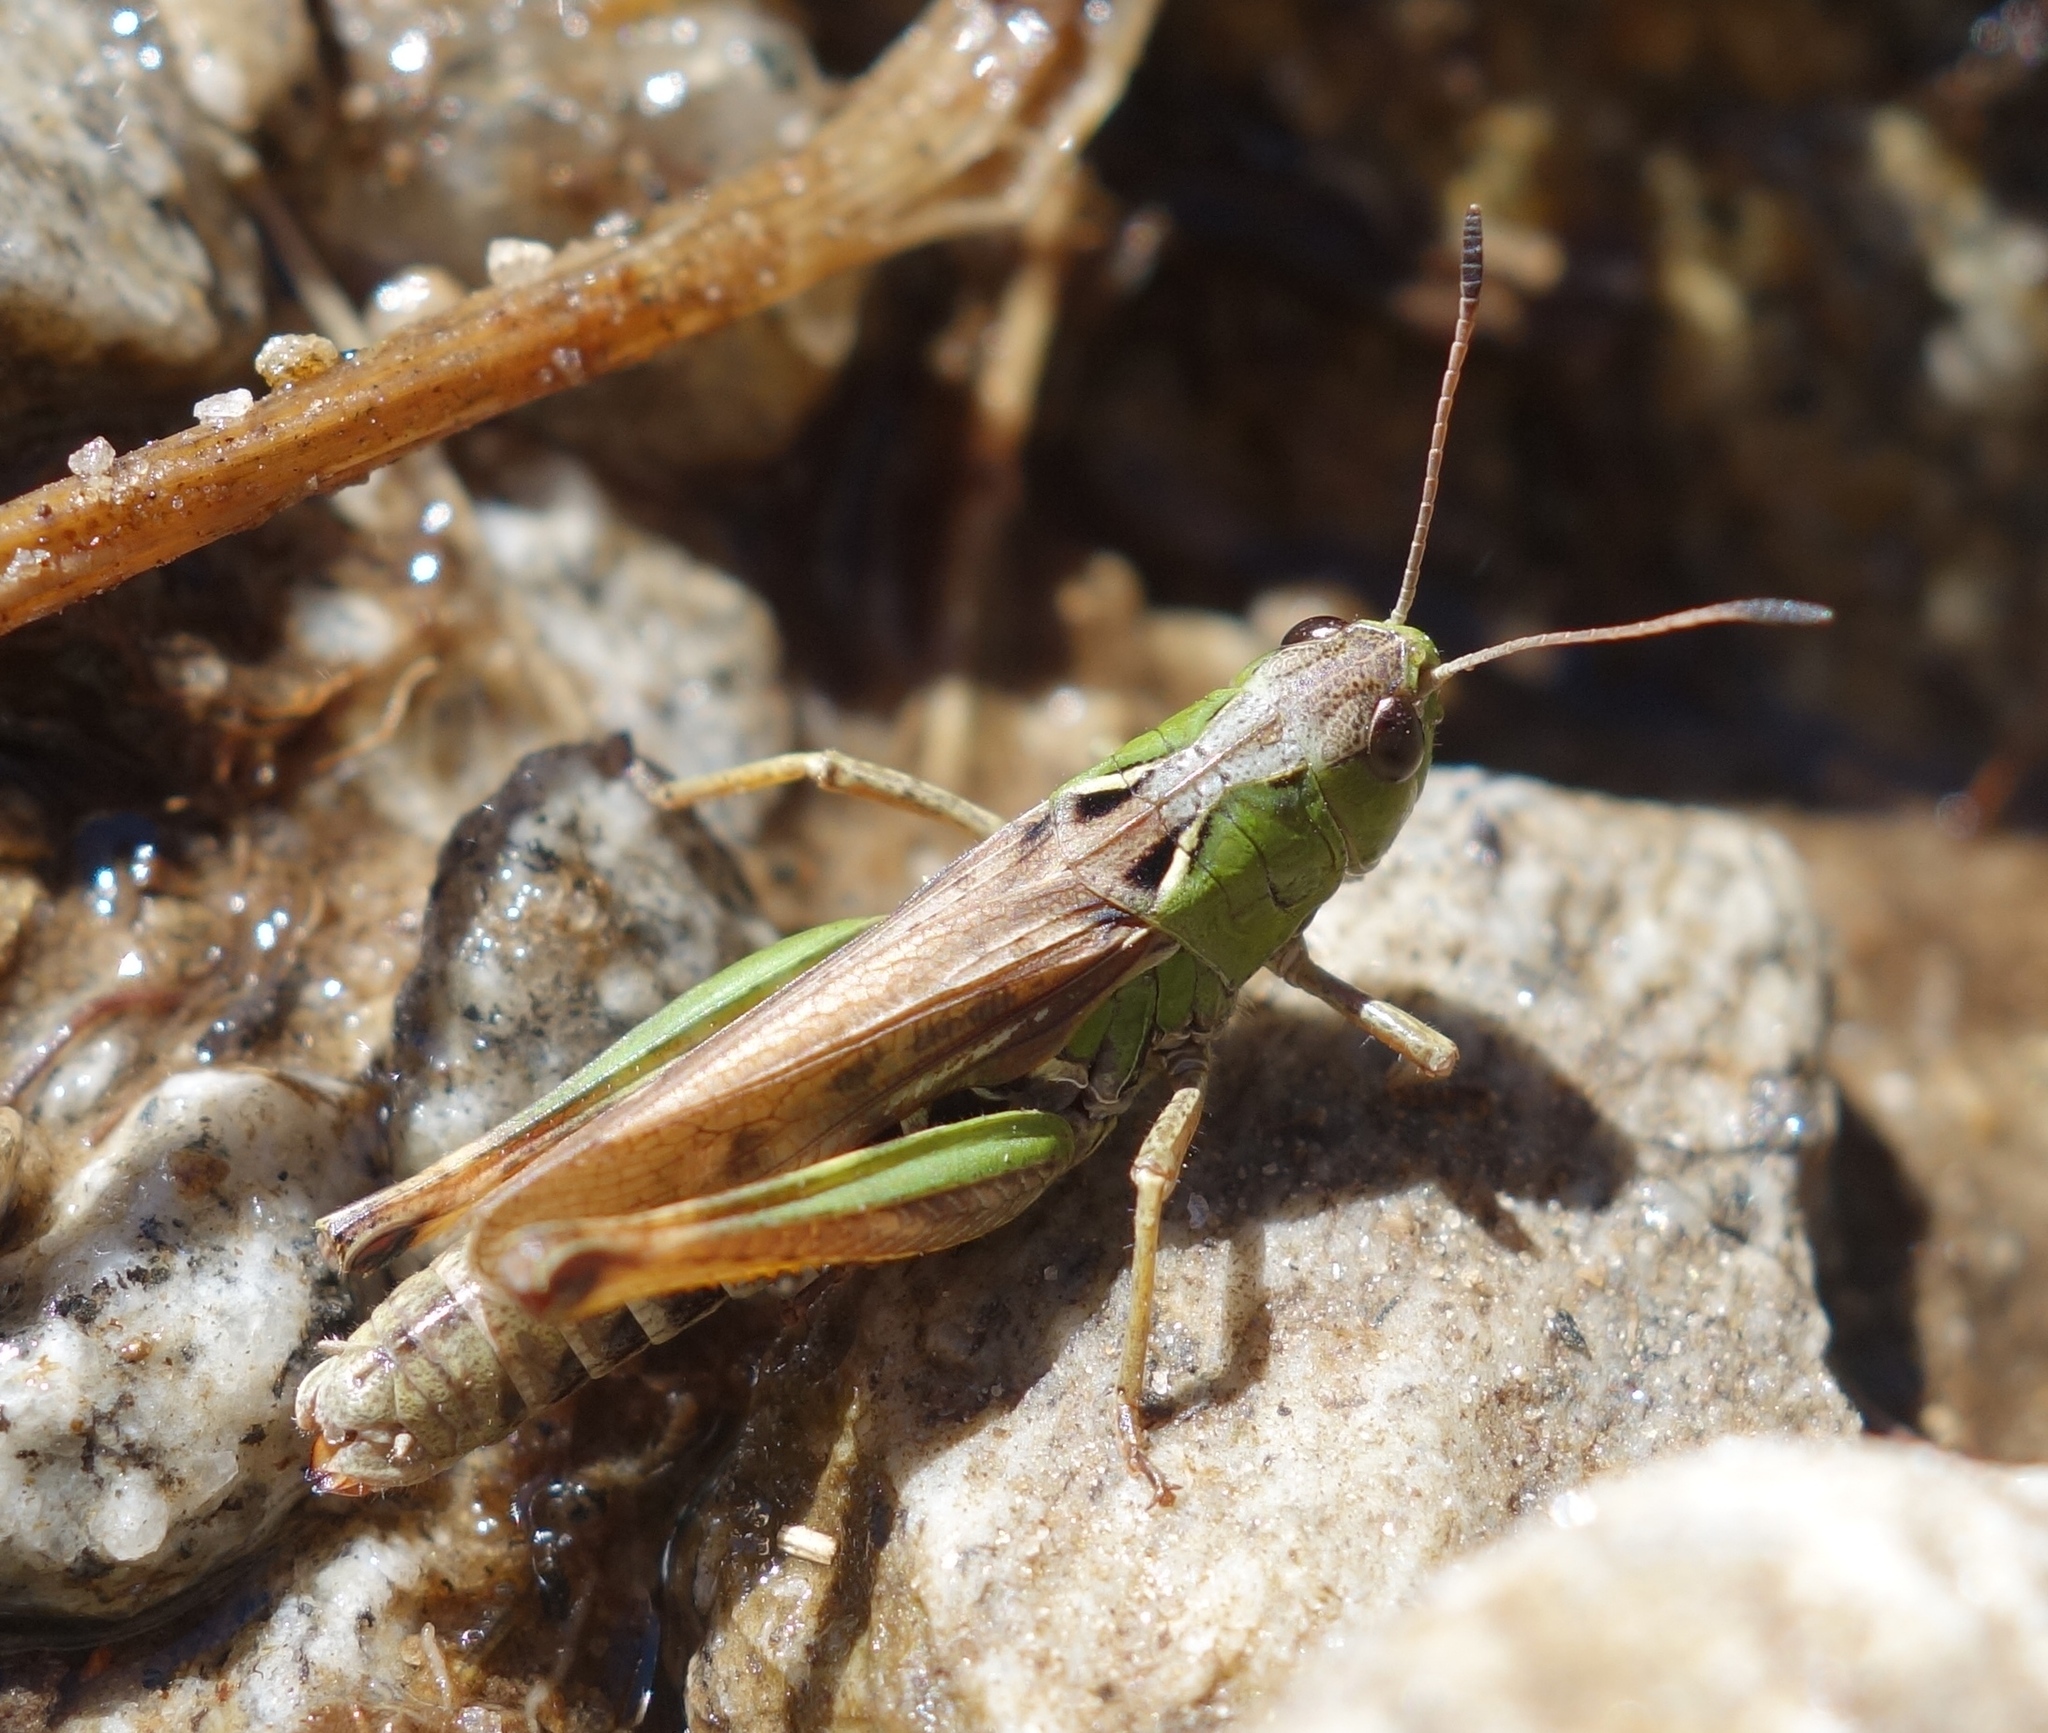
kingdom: Animalia
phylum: Arthropoda
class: Insecta
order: Orthoptera
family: Acrididae
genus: Gomphocerus
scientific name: Gomphocerus sibiricus
